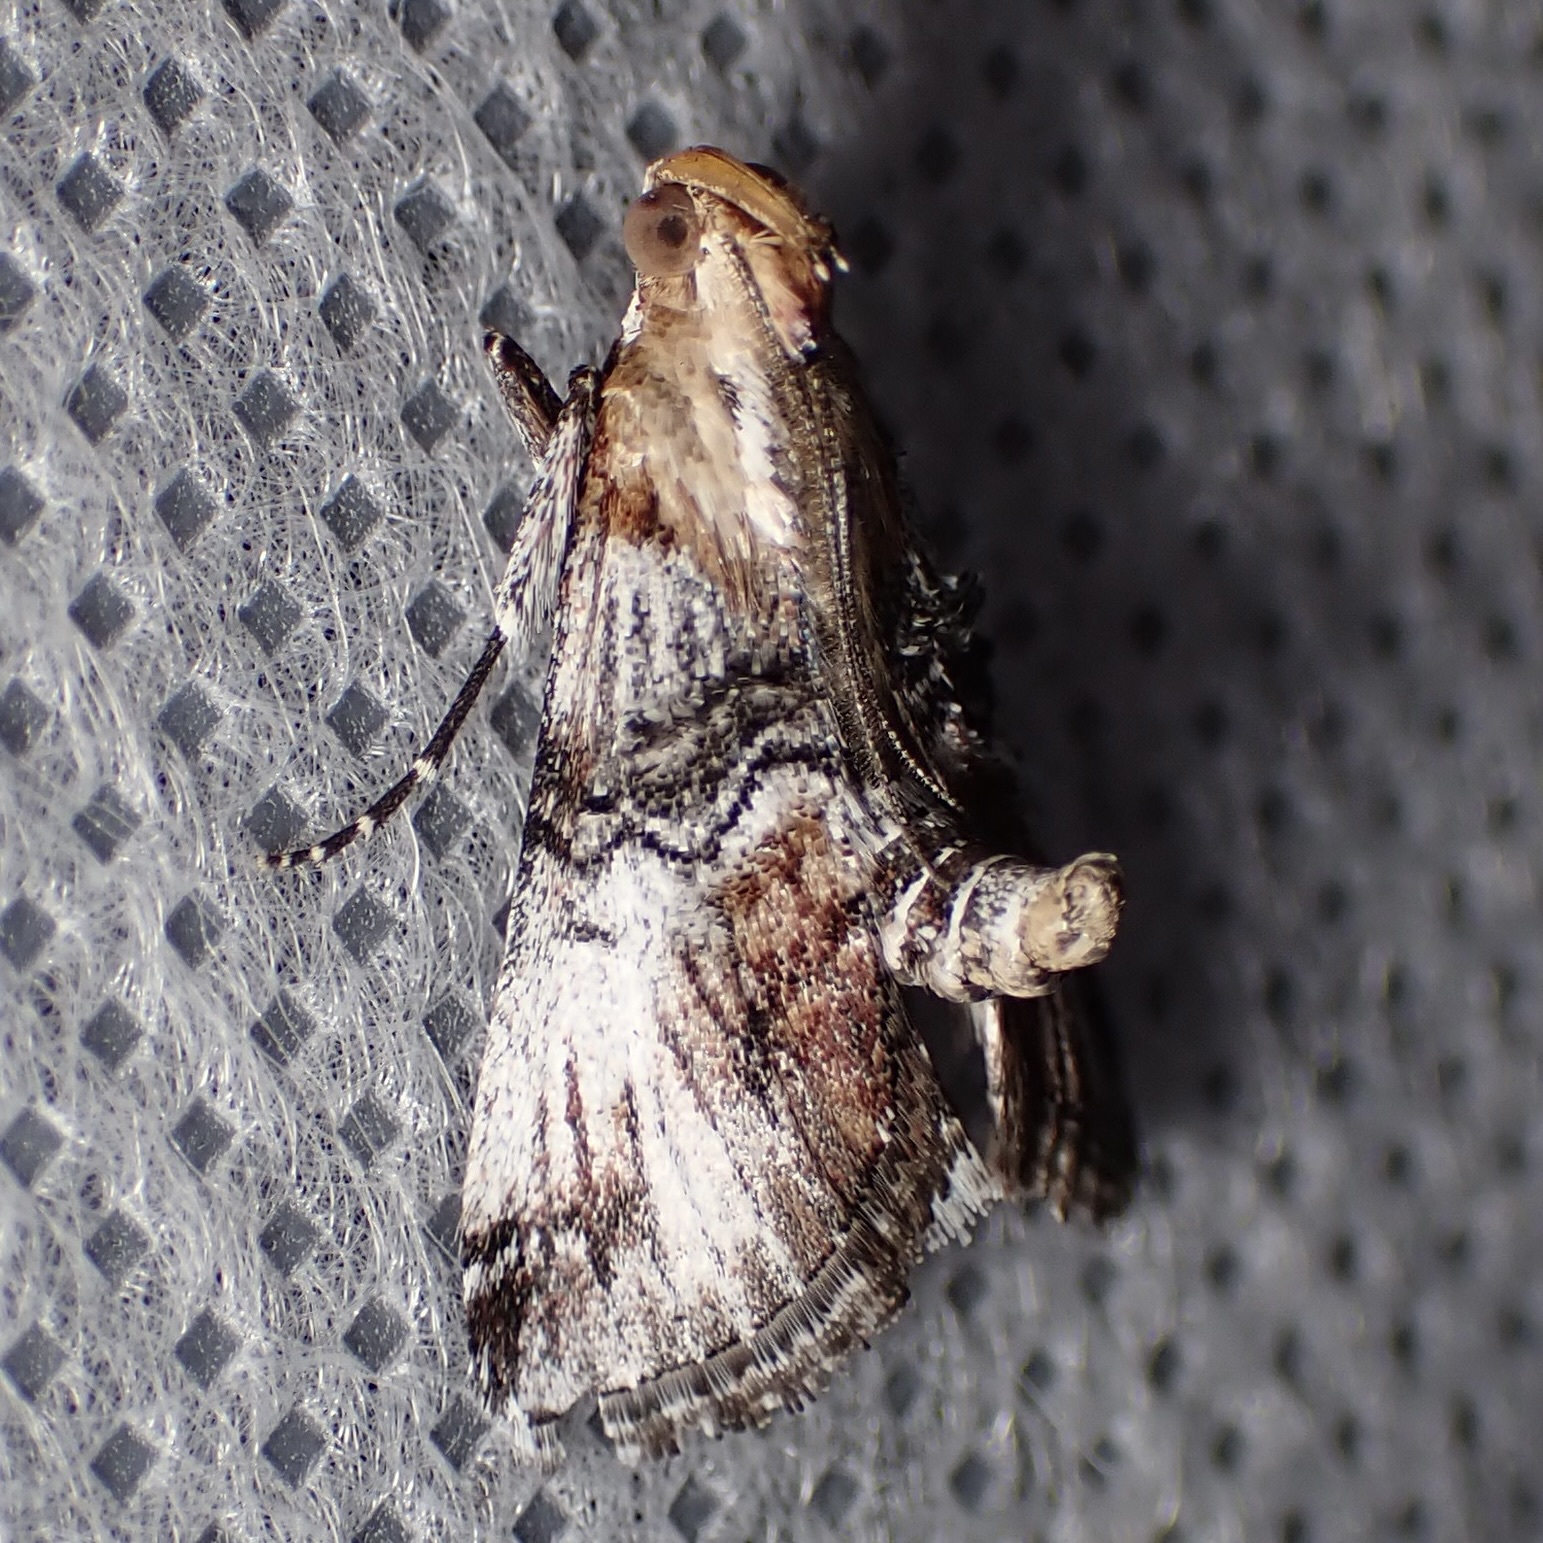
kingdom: Animalia
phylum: Arthropoda
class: Insecta
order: Lepidoptera
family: Pyralidae
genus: Toripalpus
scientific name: Toripalpus trabalis
